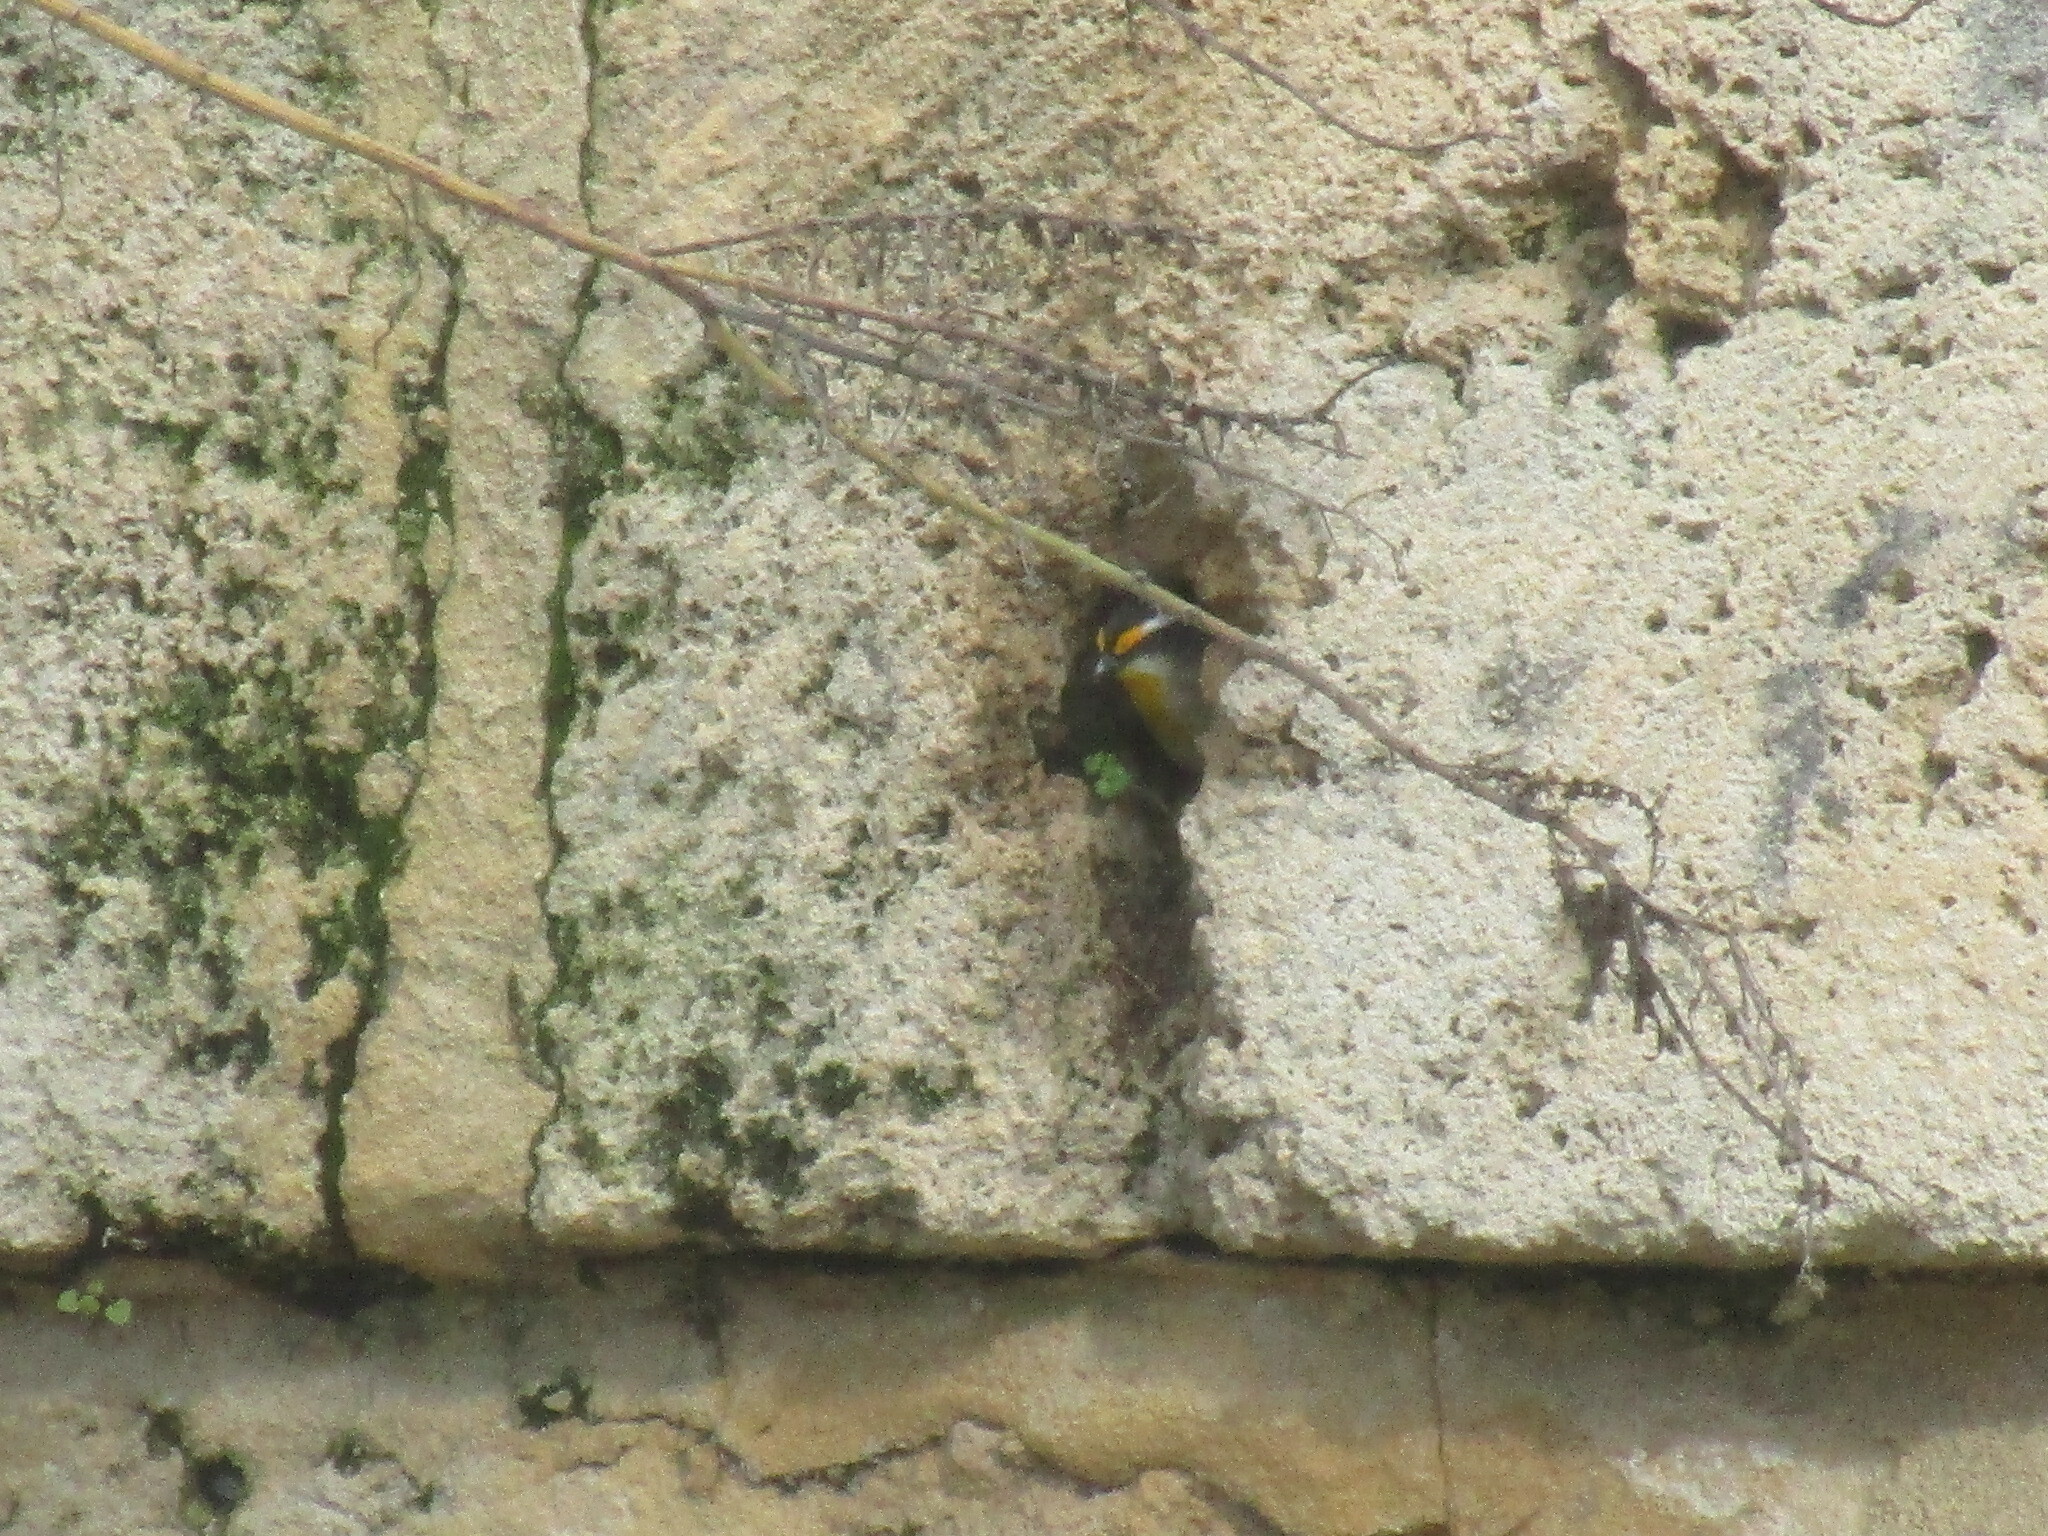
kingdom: Animalia
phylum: Chordata
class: Aves
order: Passeriformes
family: Pardalotidae
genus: Pardalotus
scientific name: Pardalotus striatus
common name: Striated pardalote
